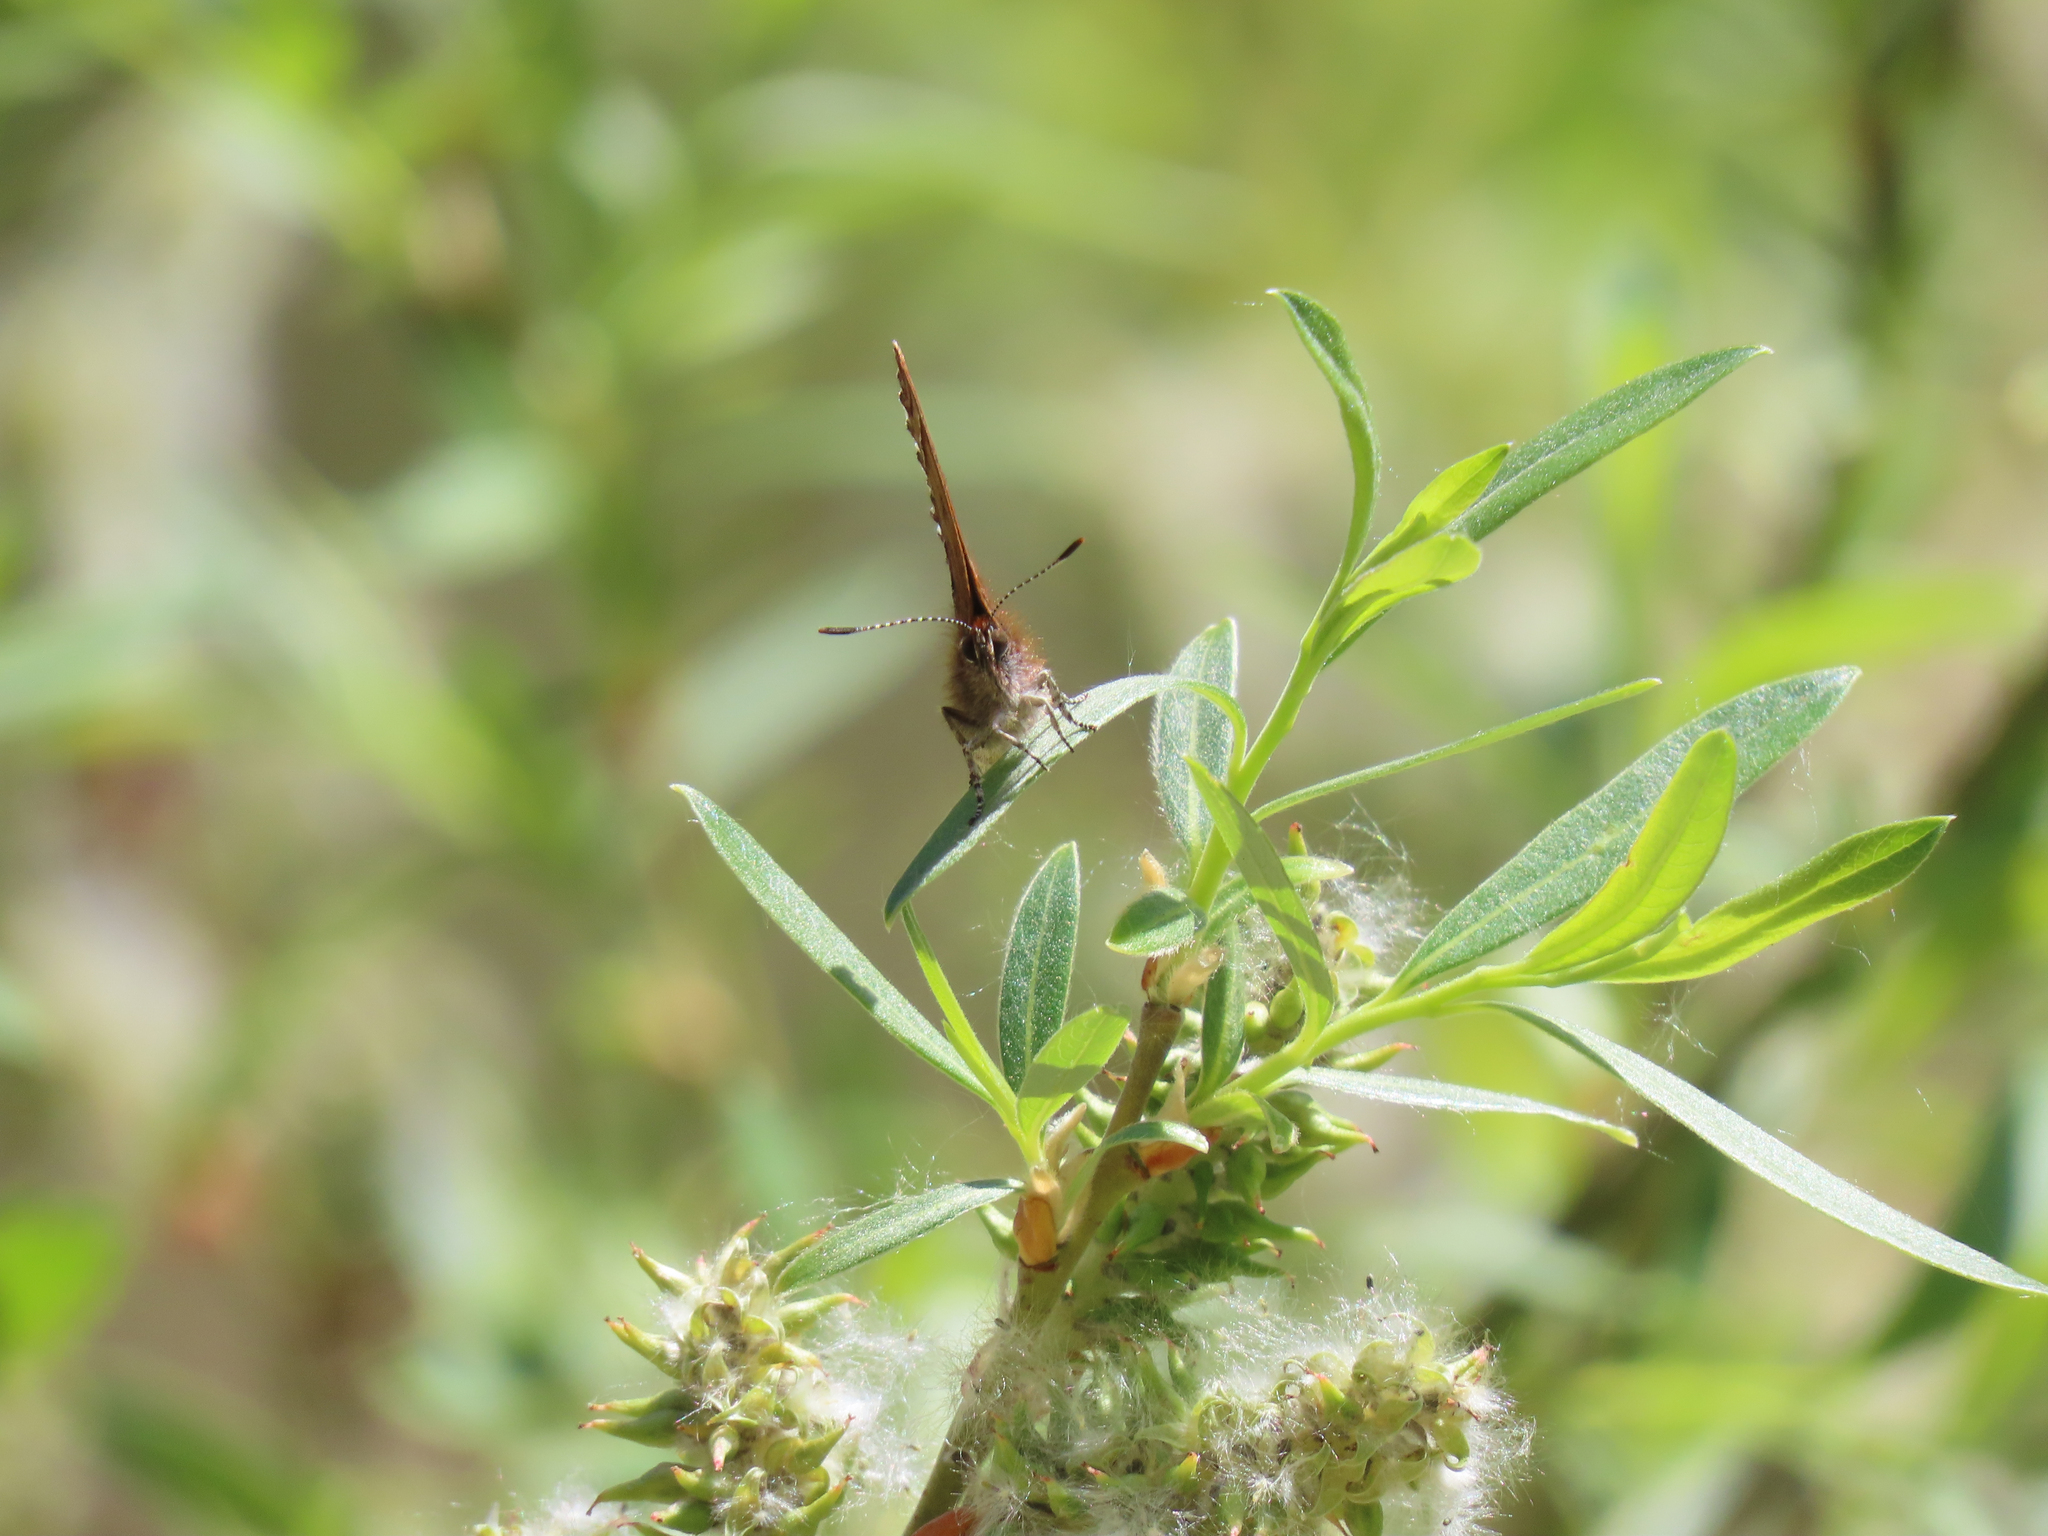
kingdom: Animalia
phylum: Arthropoda
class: Insecta
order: Lepidoptera
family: Lycaenidae
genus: Incisalia
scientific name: Incisalia eryphon
